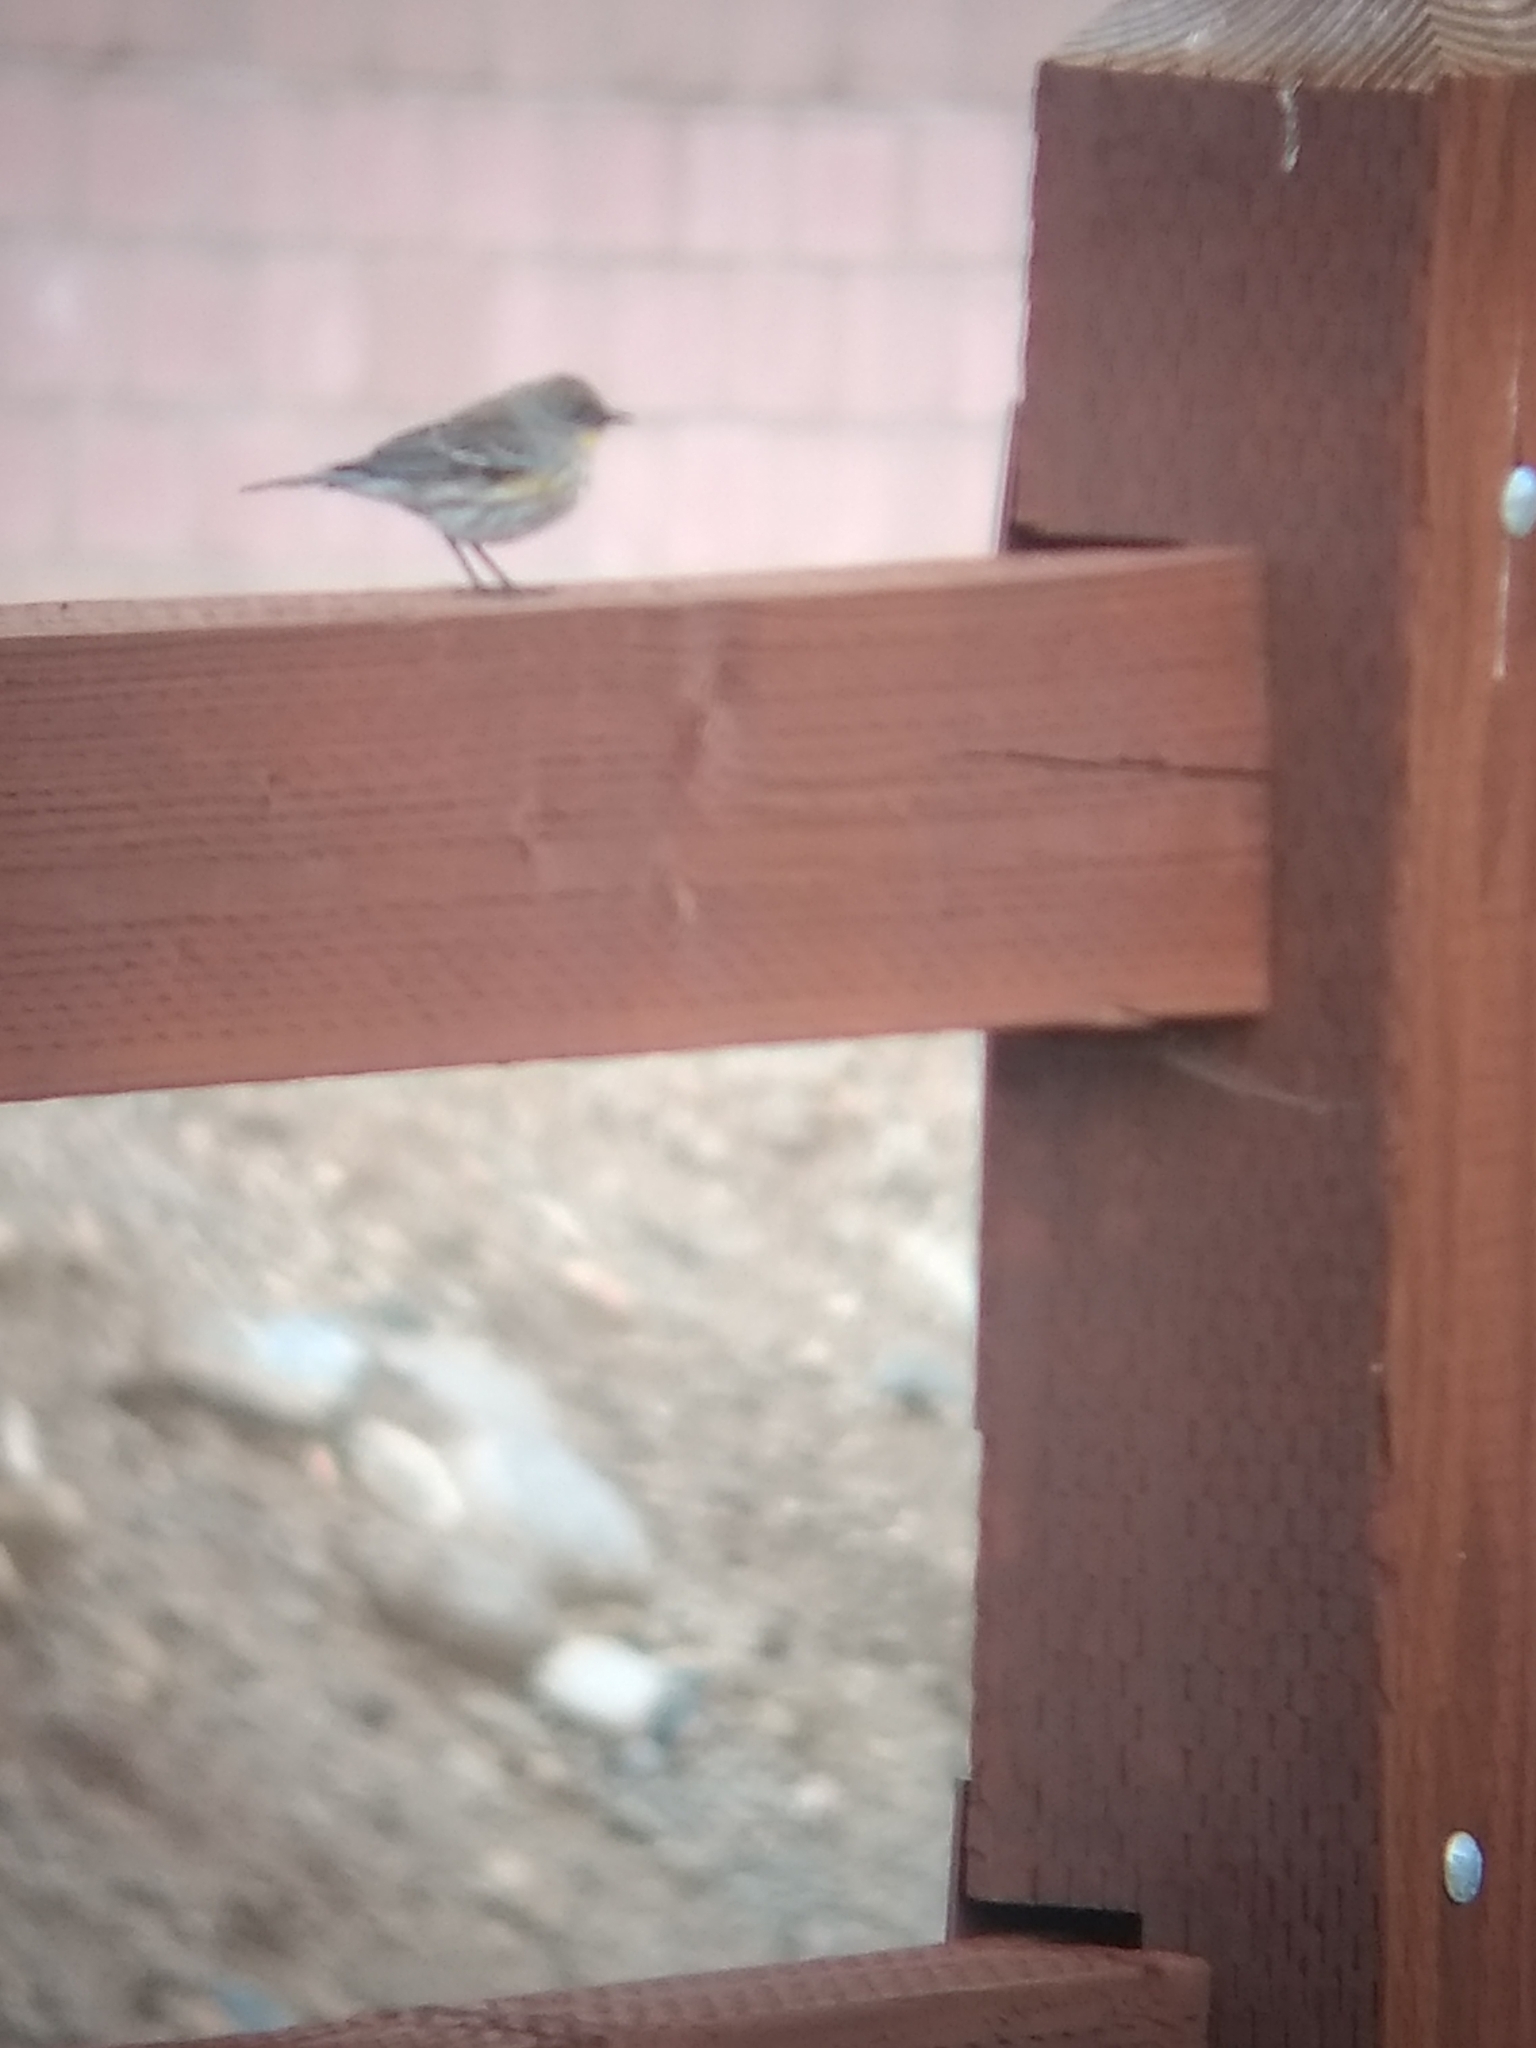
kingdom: Animalia
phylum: Chordata
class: Aves
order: Passeriformes
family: Parulidae
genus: Setophaga
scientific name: Setophaga coronata
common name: Myrtle warbler
